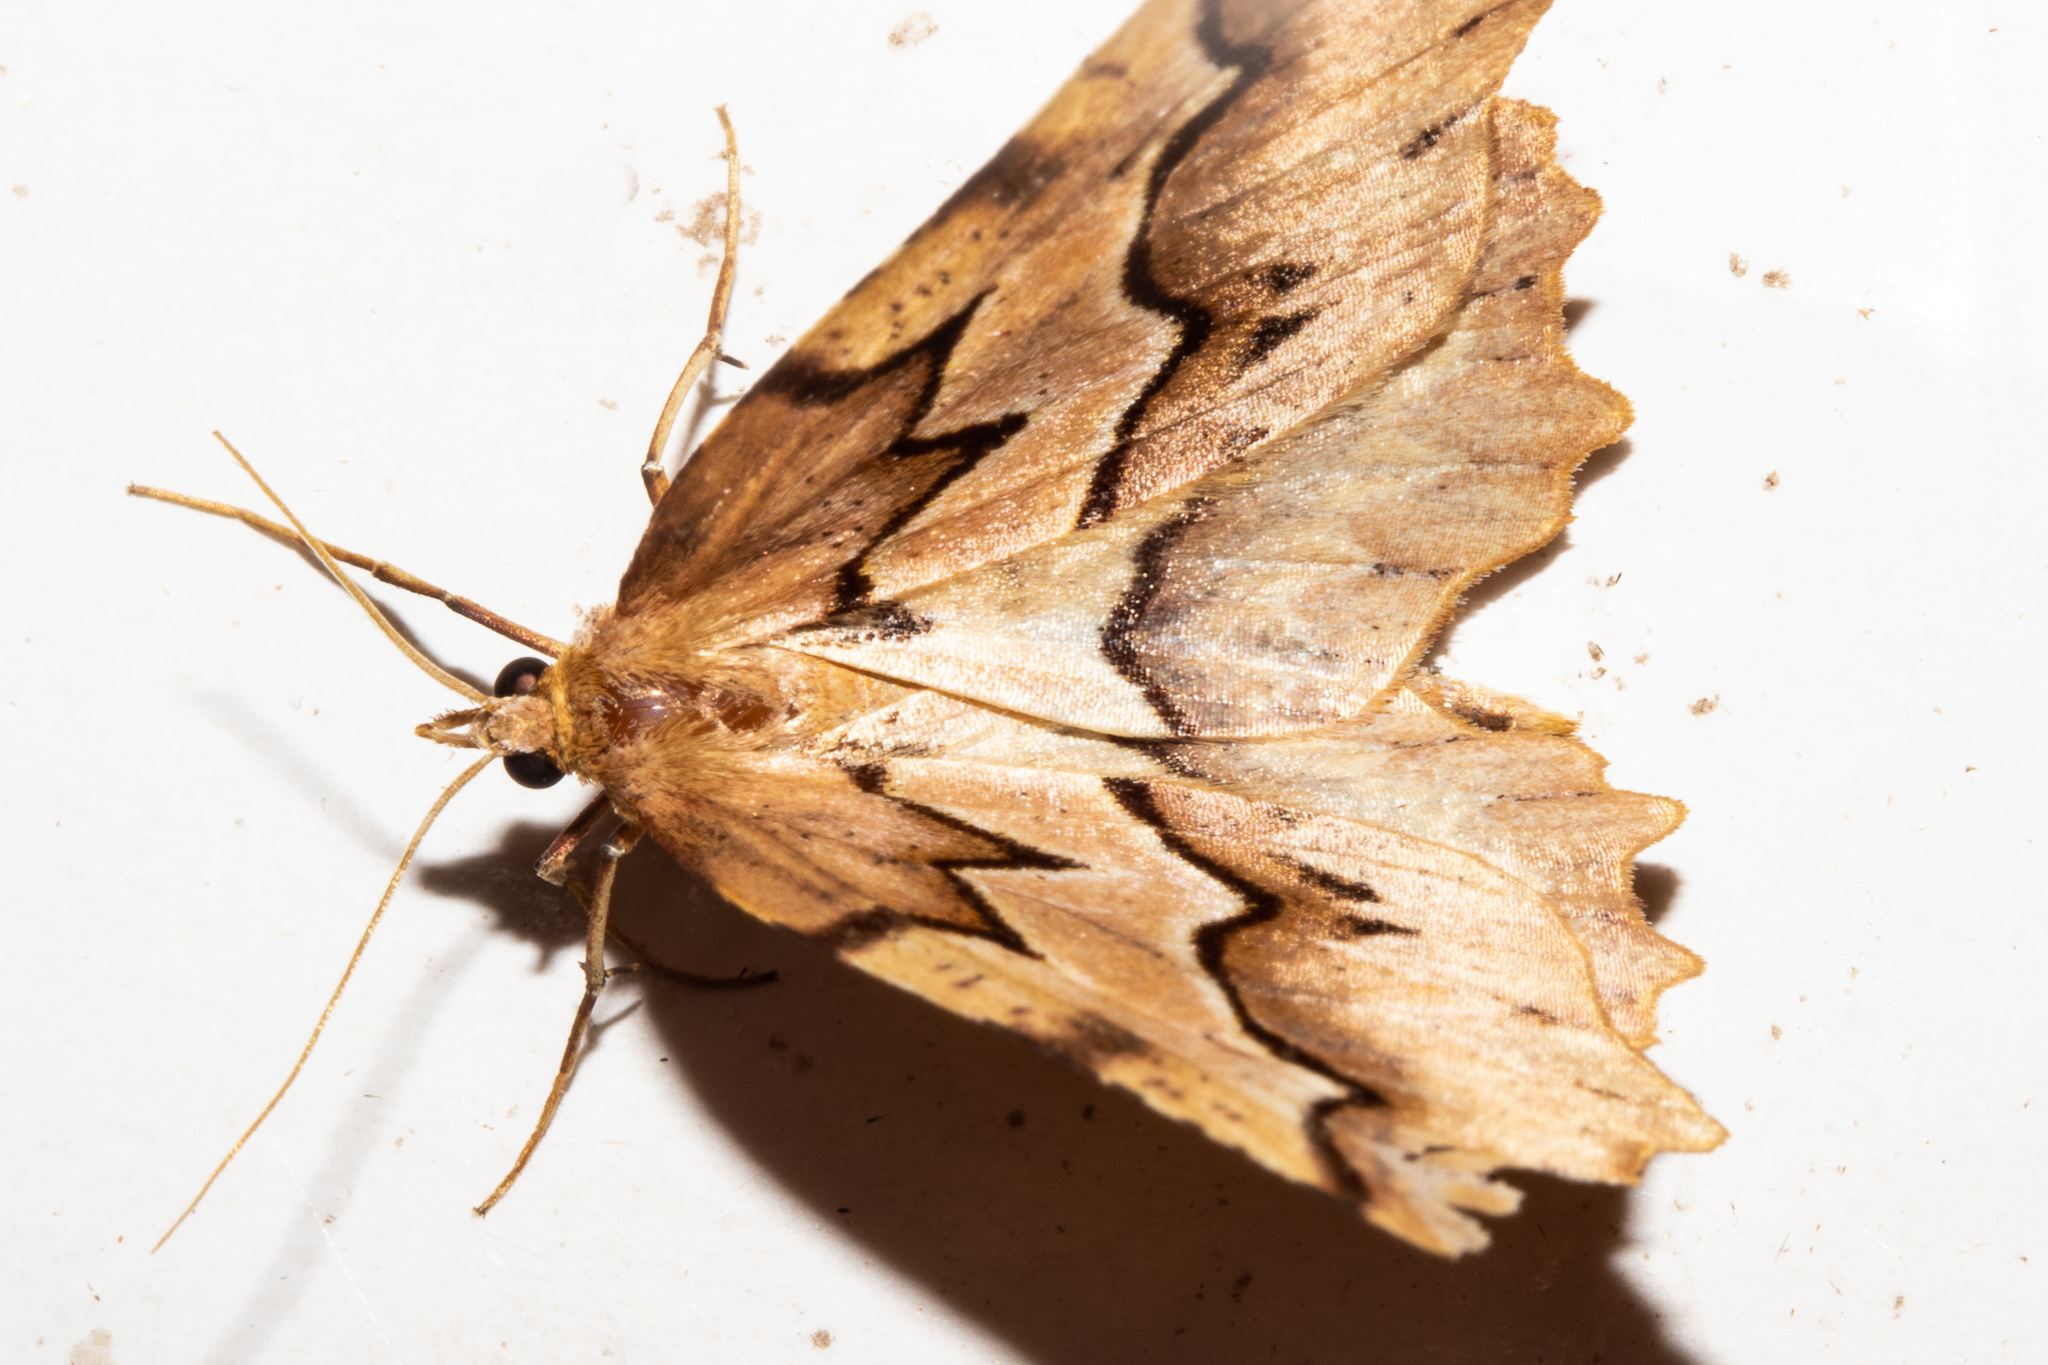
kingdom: Animalia
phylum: Arthropoda
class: Insecta
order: Lepidoptera
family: Geometridae
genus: Ischalis
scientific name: Ischalis fortinata
